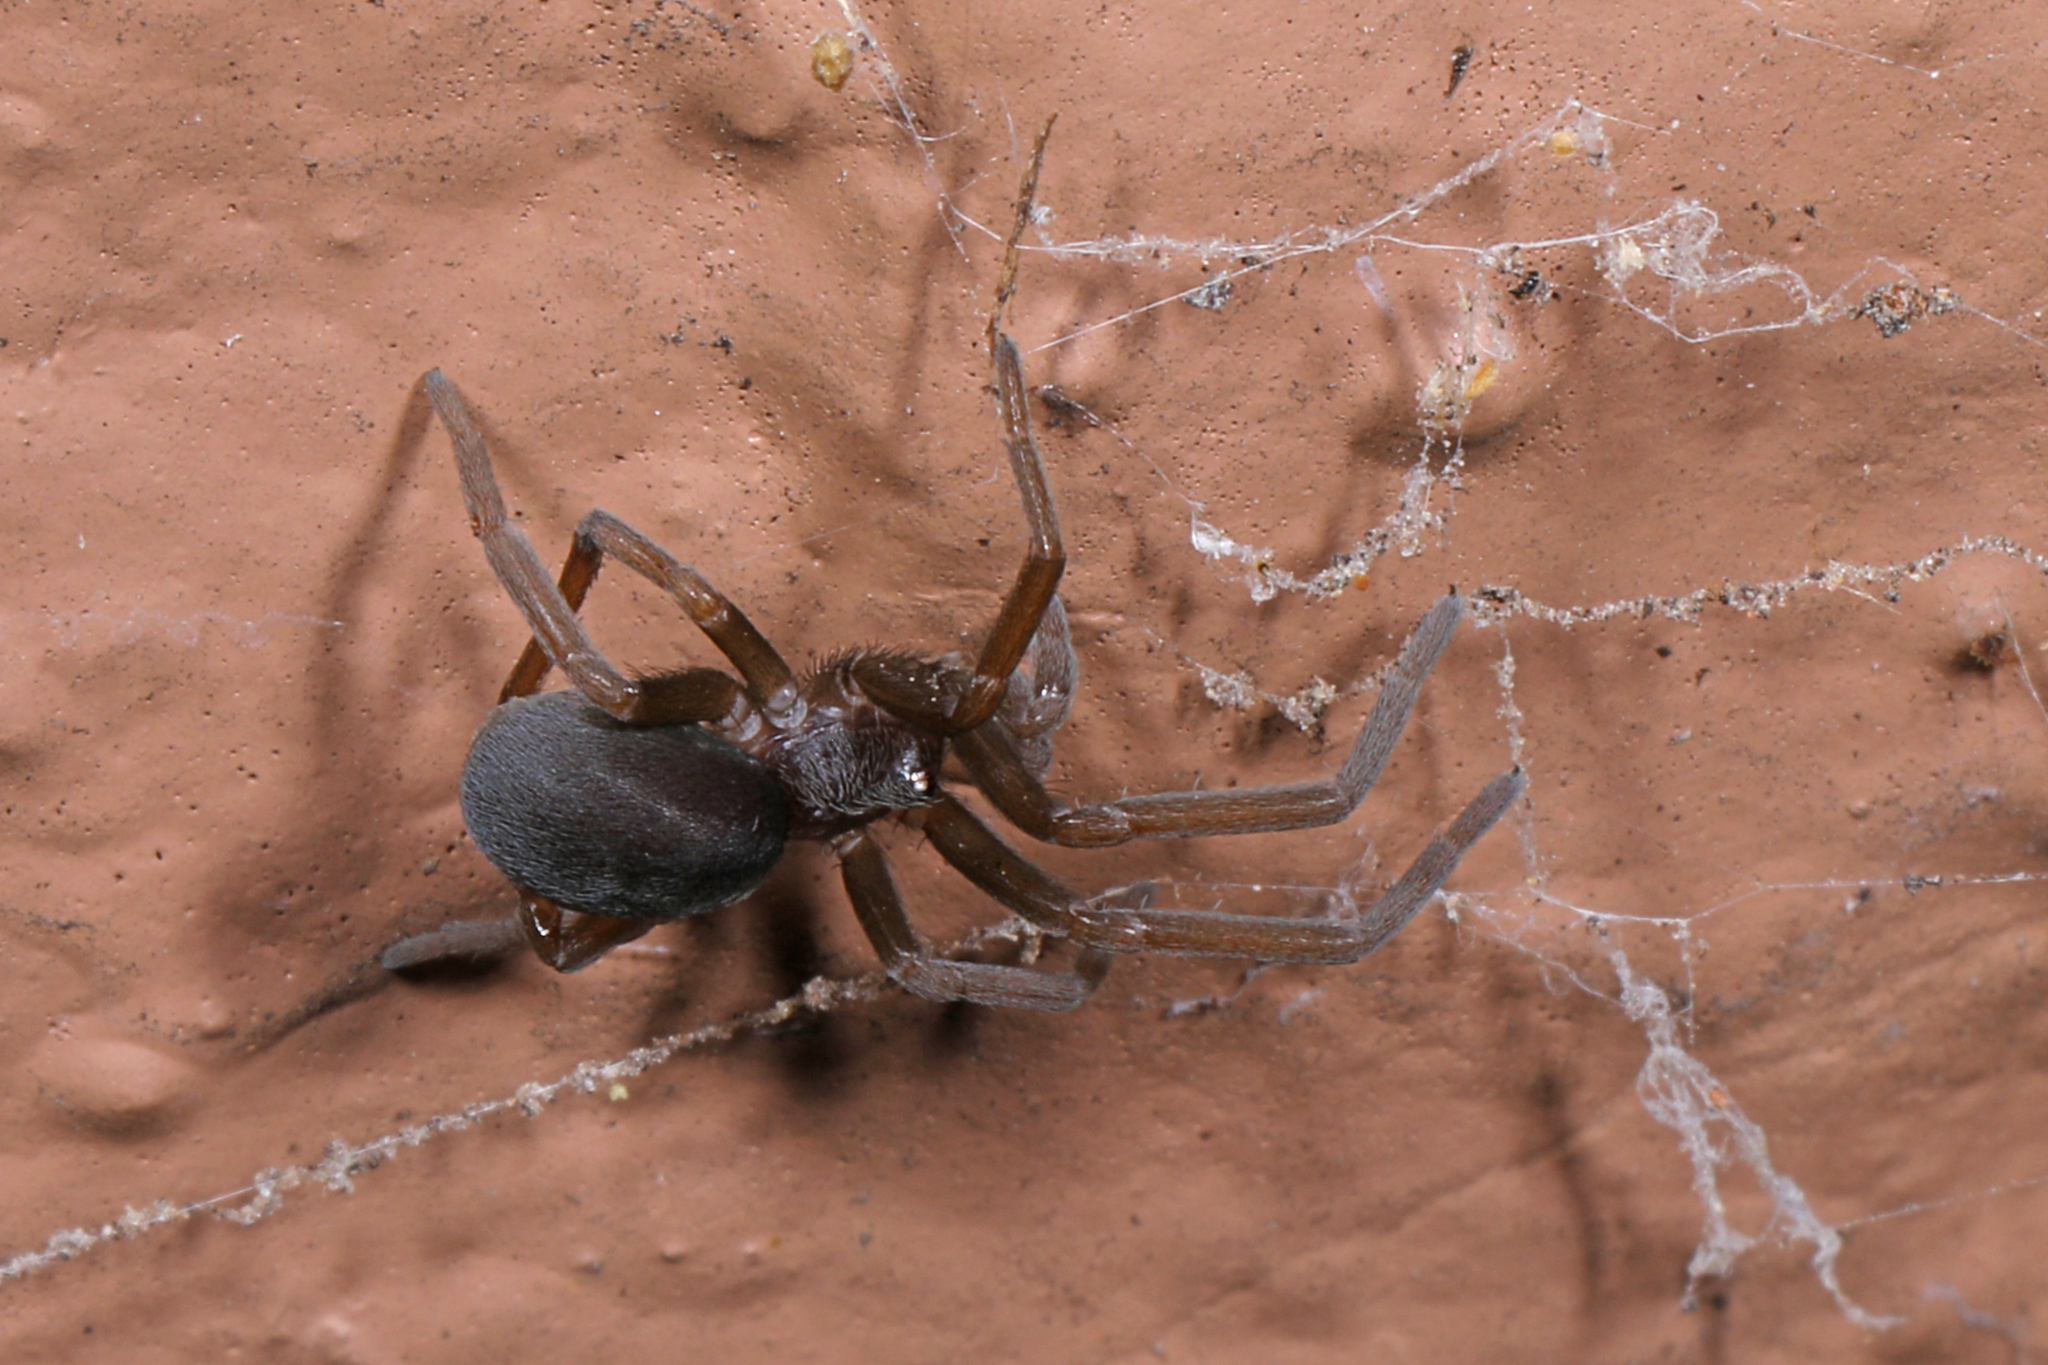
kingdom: Animalia
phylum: Arthropoda
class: Arachnida
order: Araneae
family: Filistatidae
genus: Kukulcania
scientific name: Kukulcania hibernalis
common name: Crevice weaver
